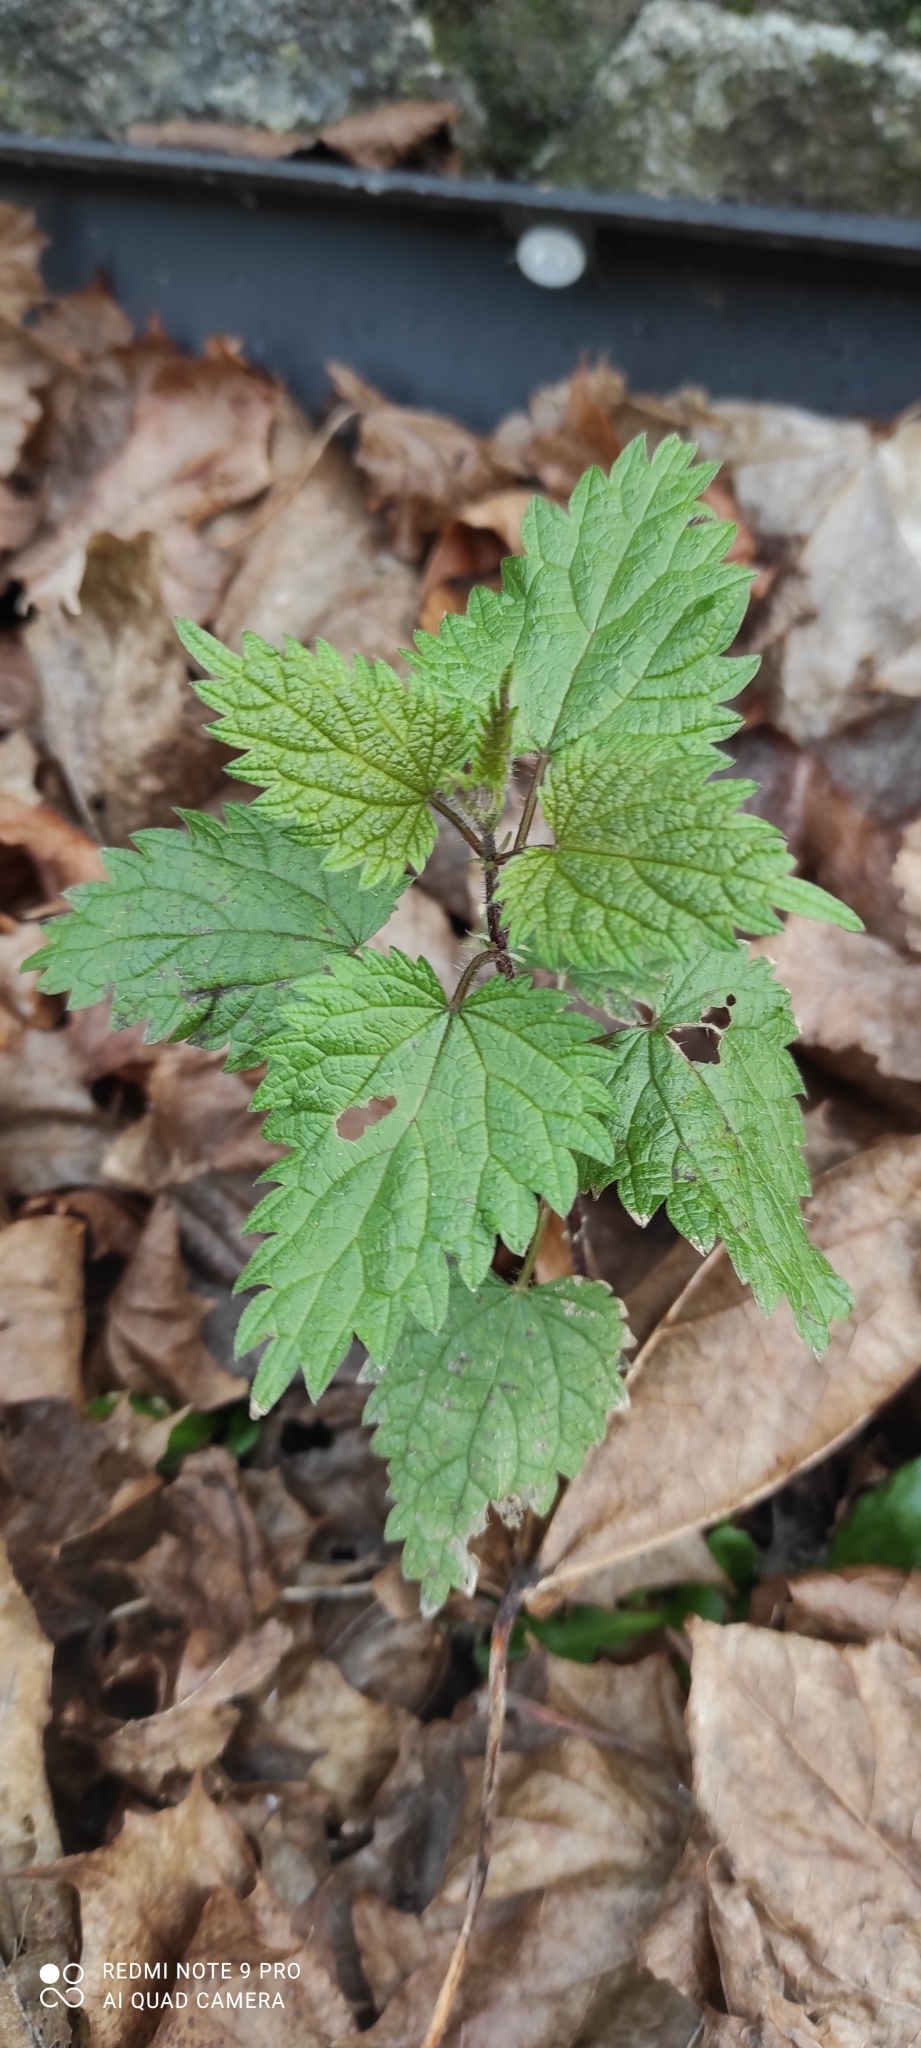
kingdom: Plantae
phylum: Tracheophyta
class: Magnoliopsida
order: Rosales
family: Urticaceae
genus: Urtica
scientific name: Urtica dioica
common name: Common nettle
